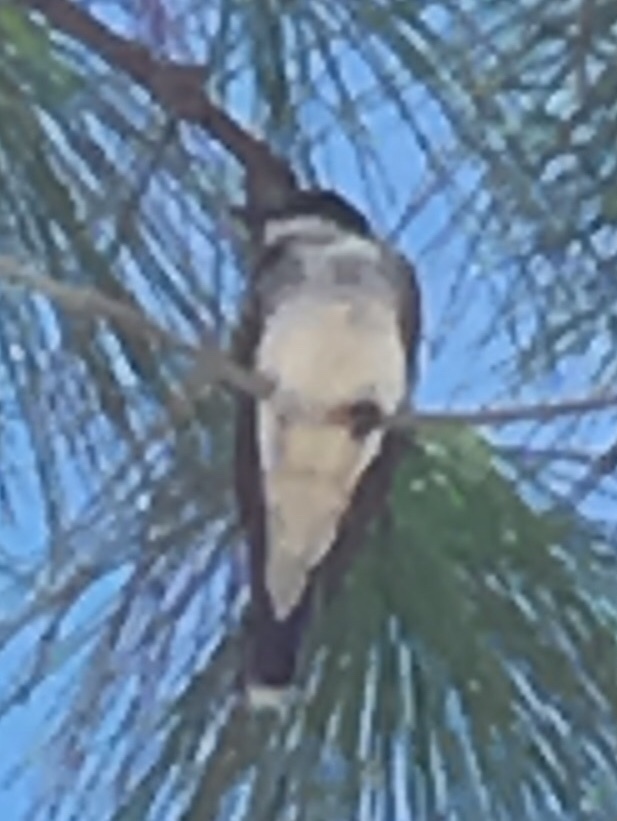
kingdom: Animalia
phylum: Chordata
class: Aves
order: Passeriformes
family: Tyrannidae
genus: Tyrannus
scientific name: Tyrannus tyrannus
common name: Eastern kingbird
